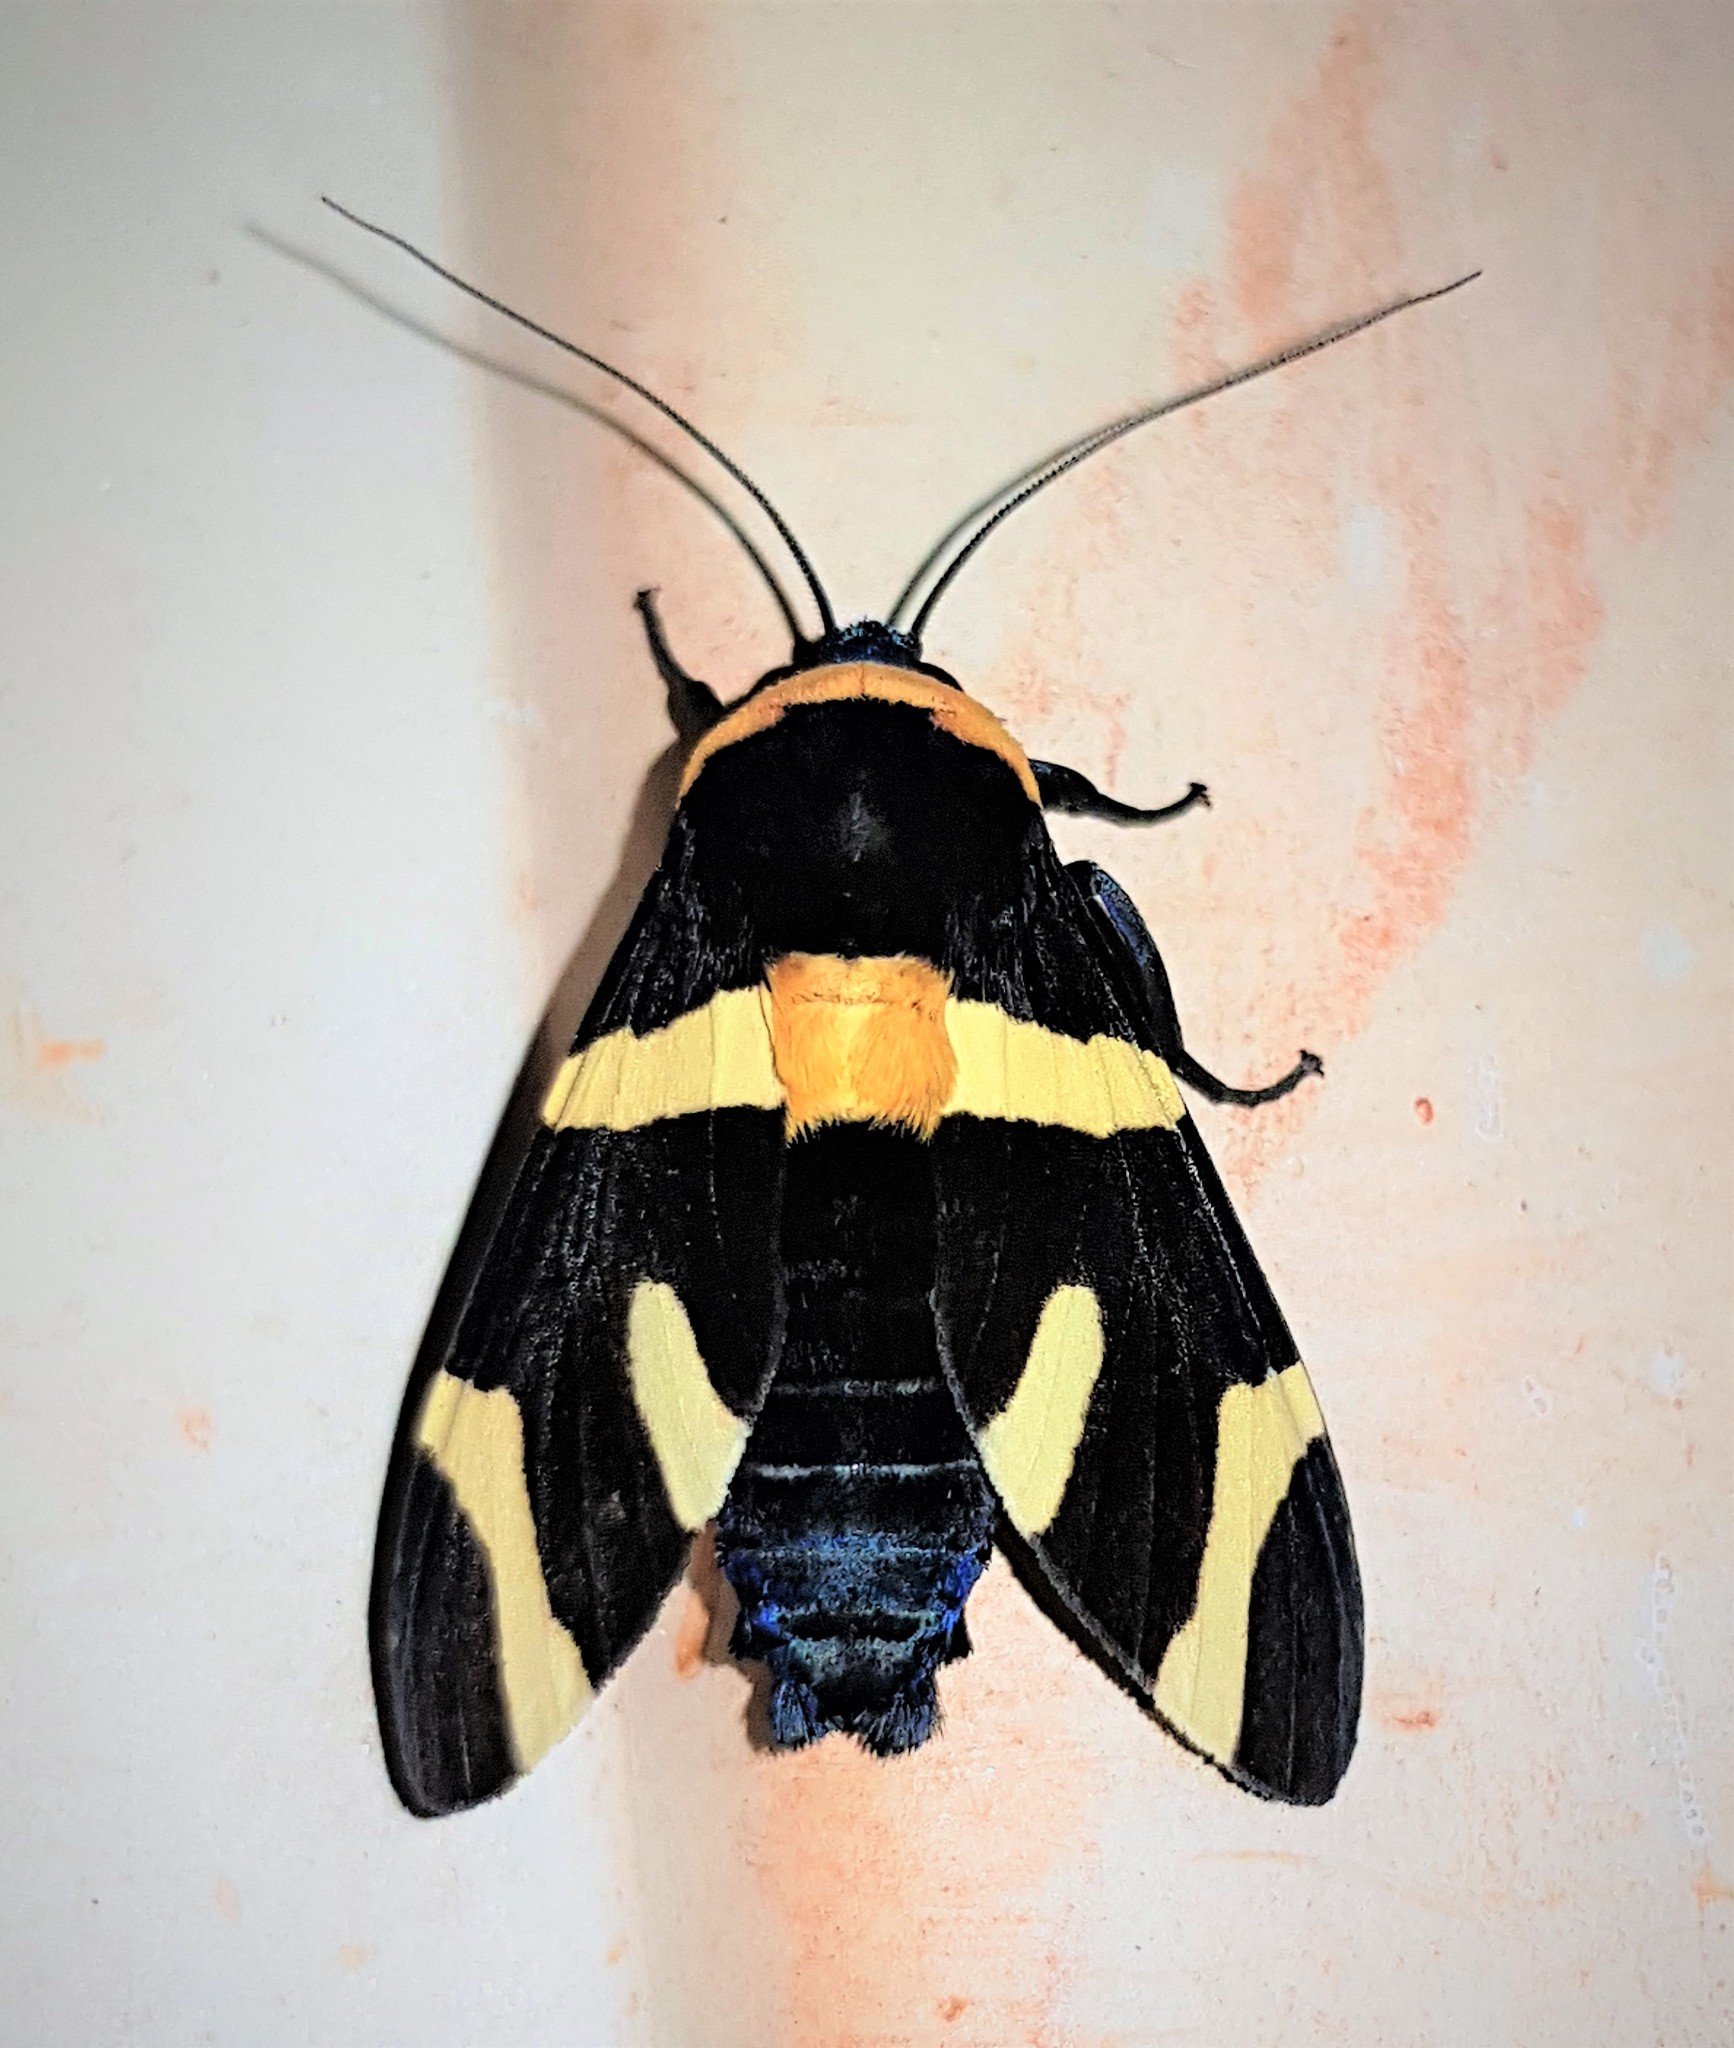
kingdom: Animalia
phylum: Arthropoda
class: Insecta
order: Lepidoptera
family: Erebidae
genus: Viviennea
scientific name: Viviennea zonana
